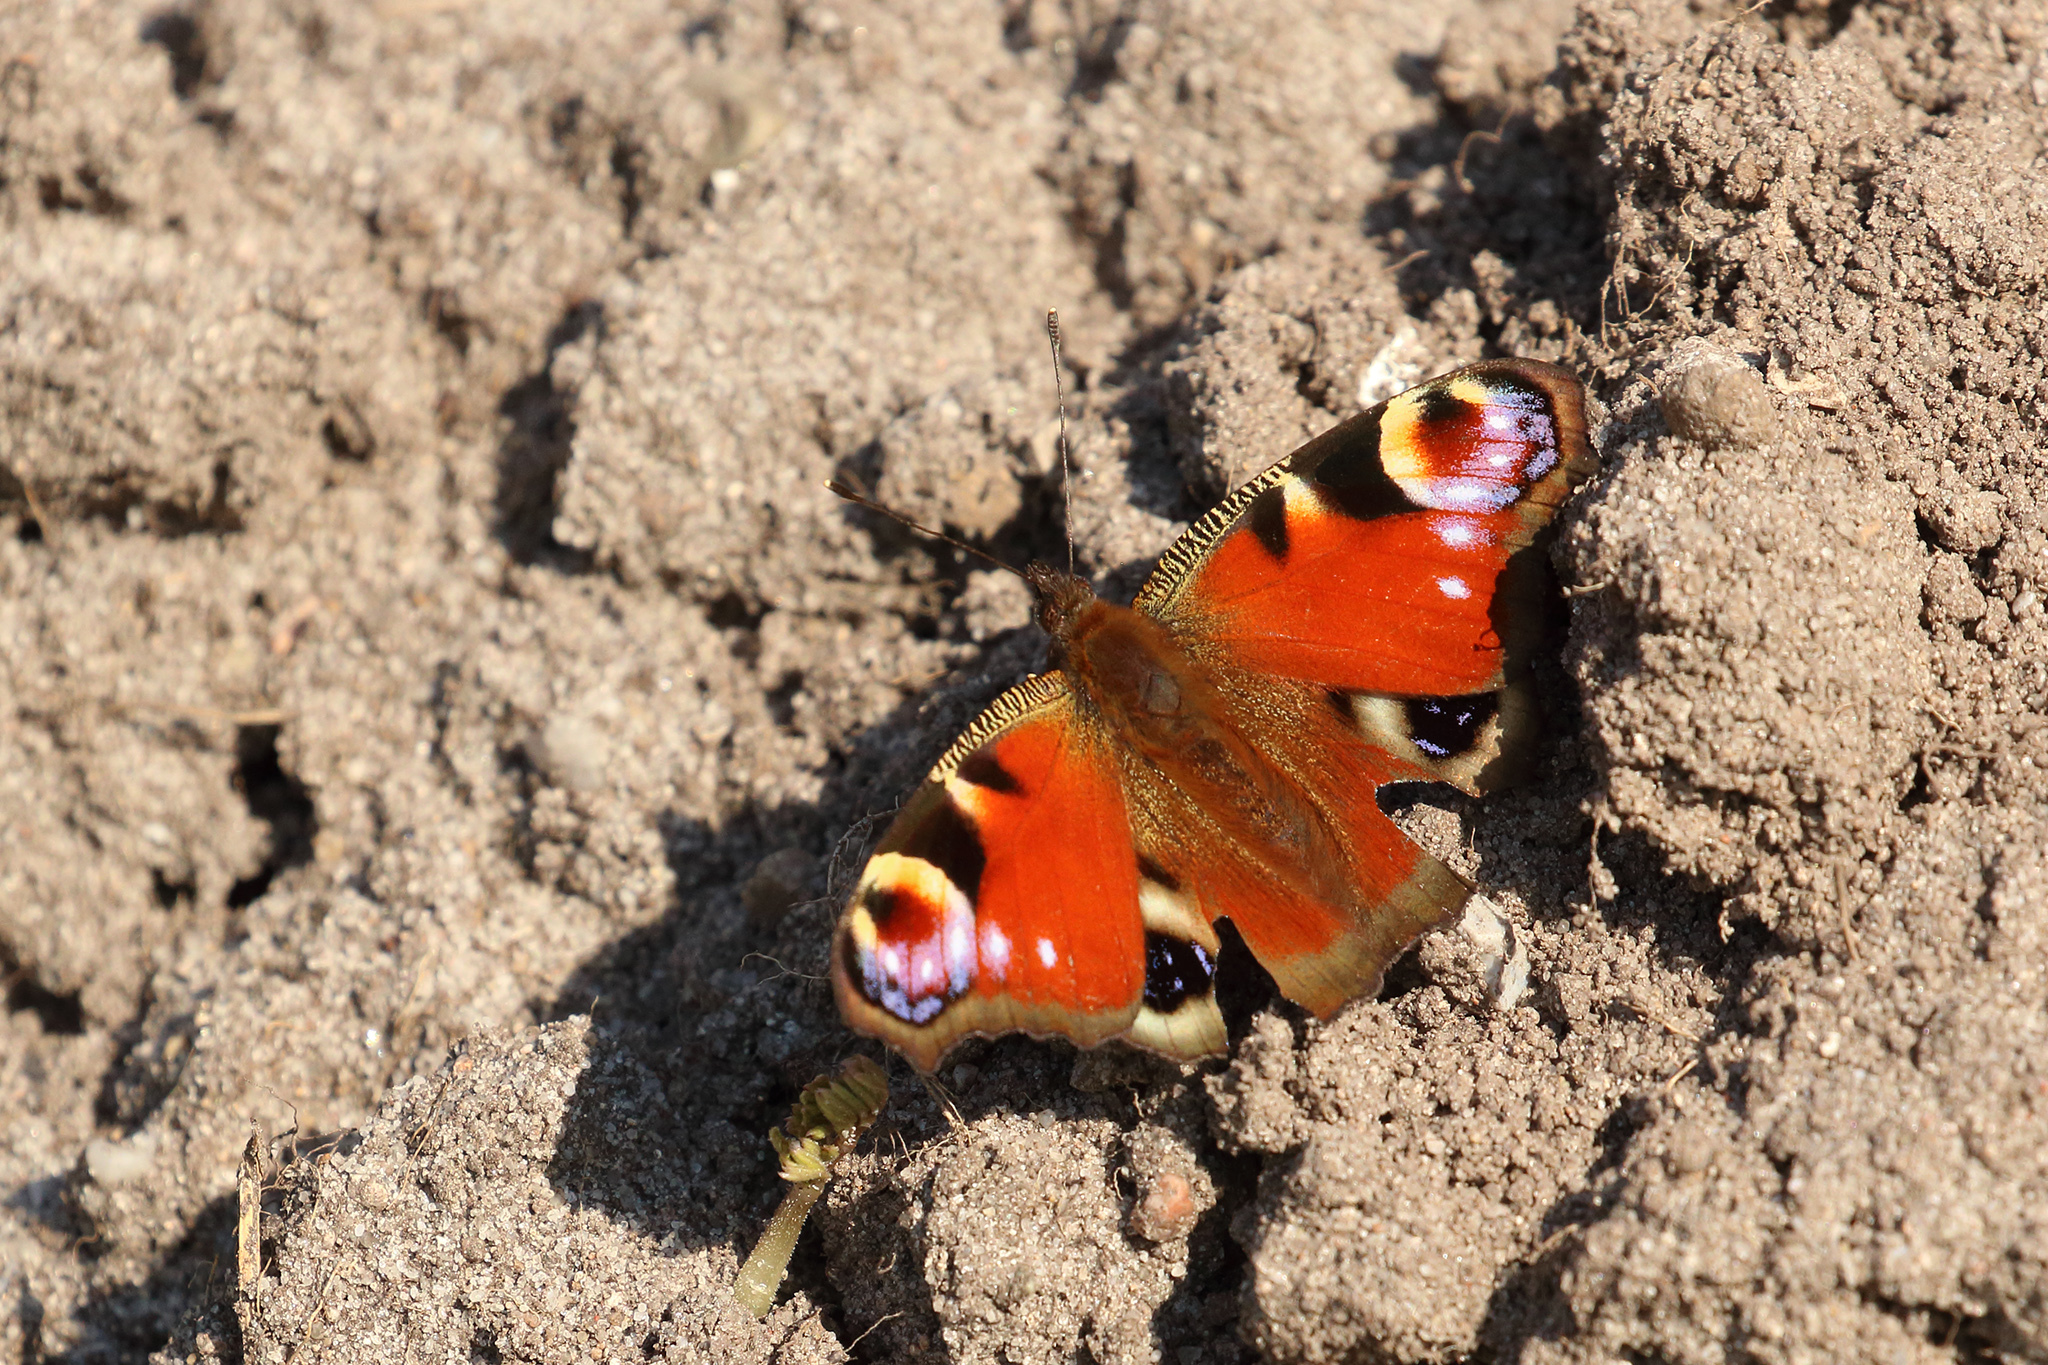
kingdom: Animalia
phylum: Arthropoda
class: Insecta
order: Lepidoptera
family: Nymphalidae
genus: Aglais
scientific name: Aglais io
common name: Peacock
